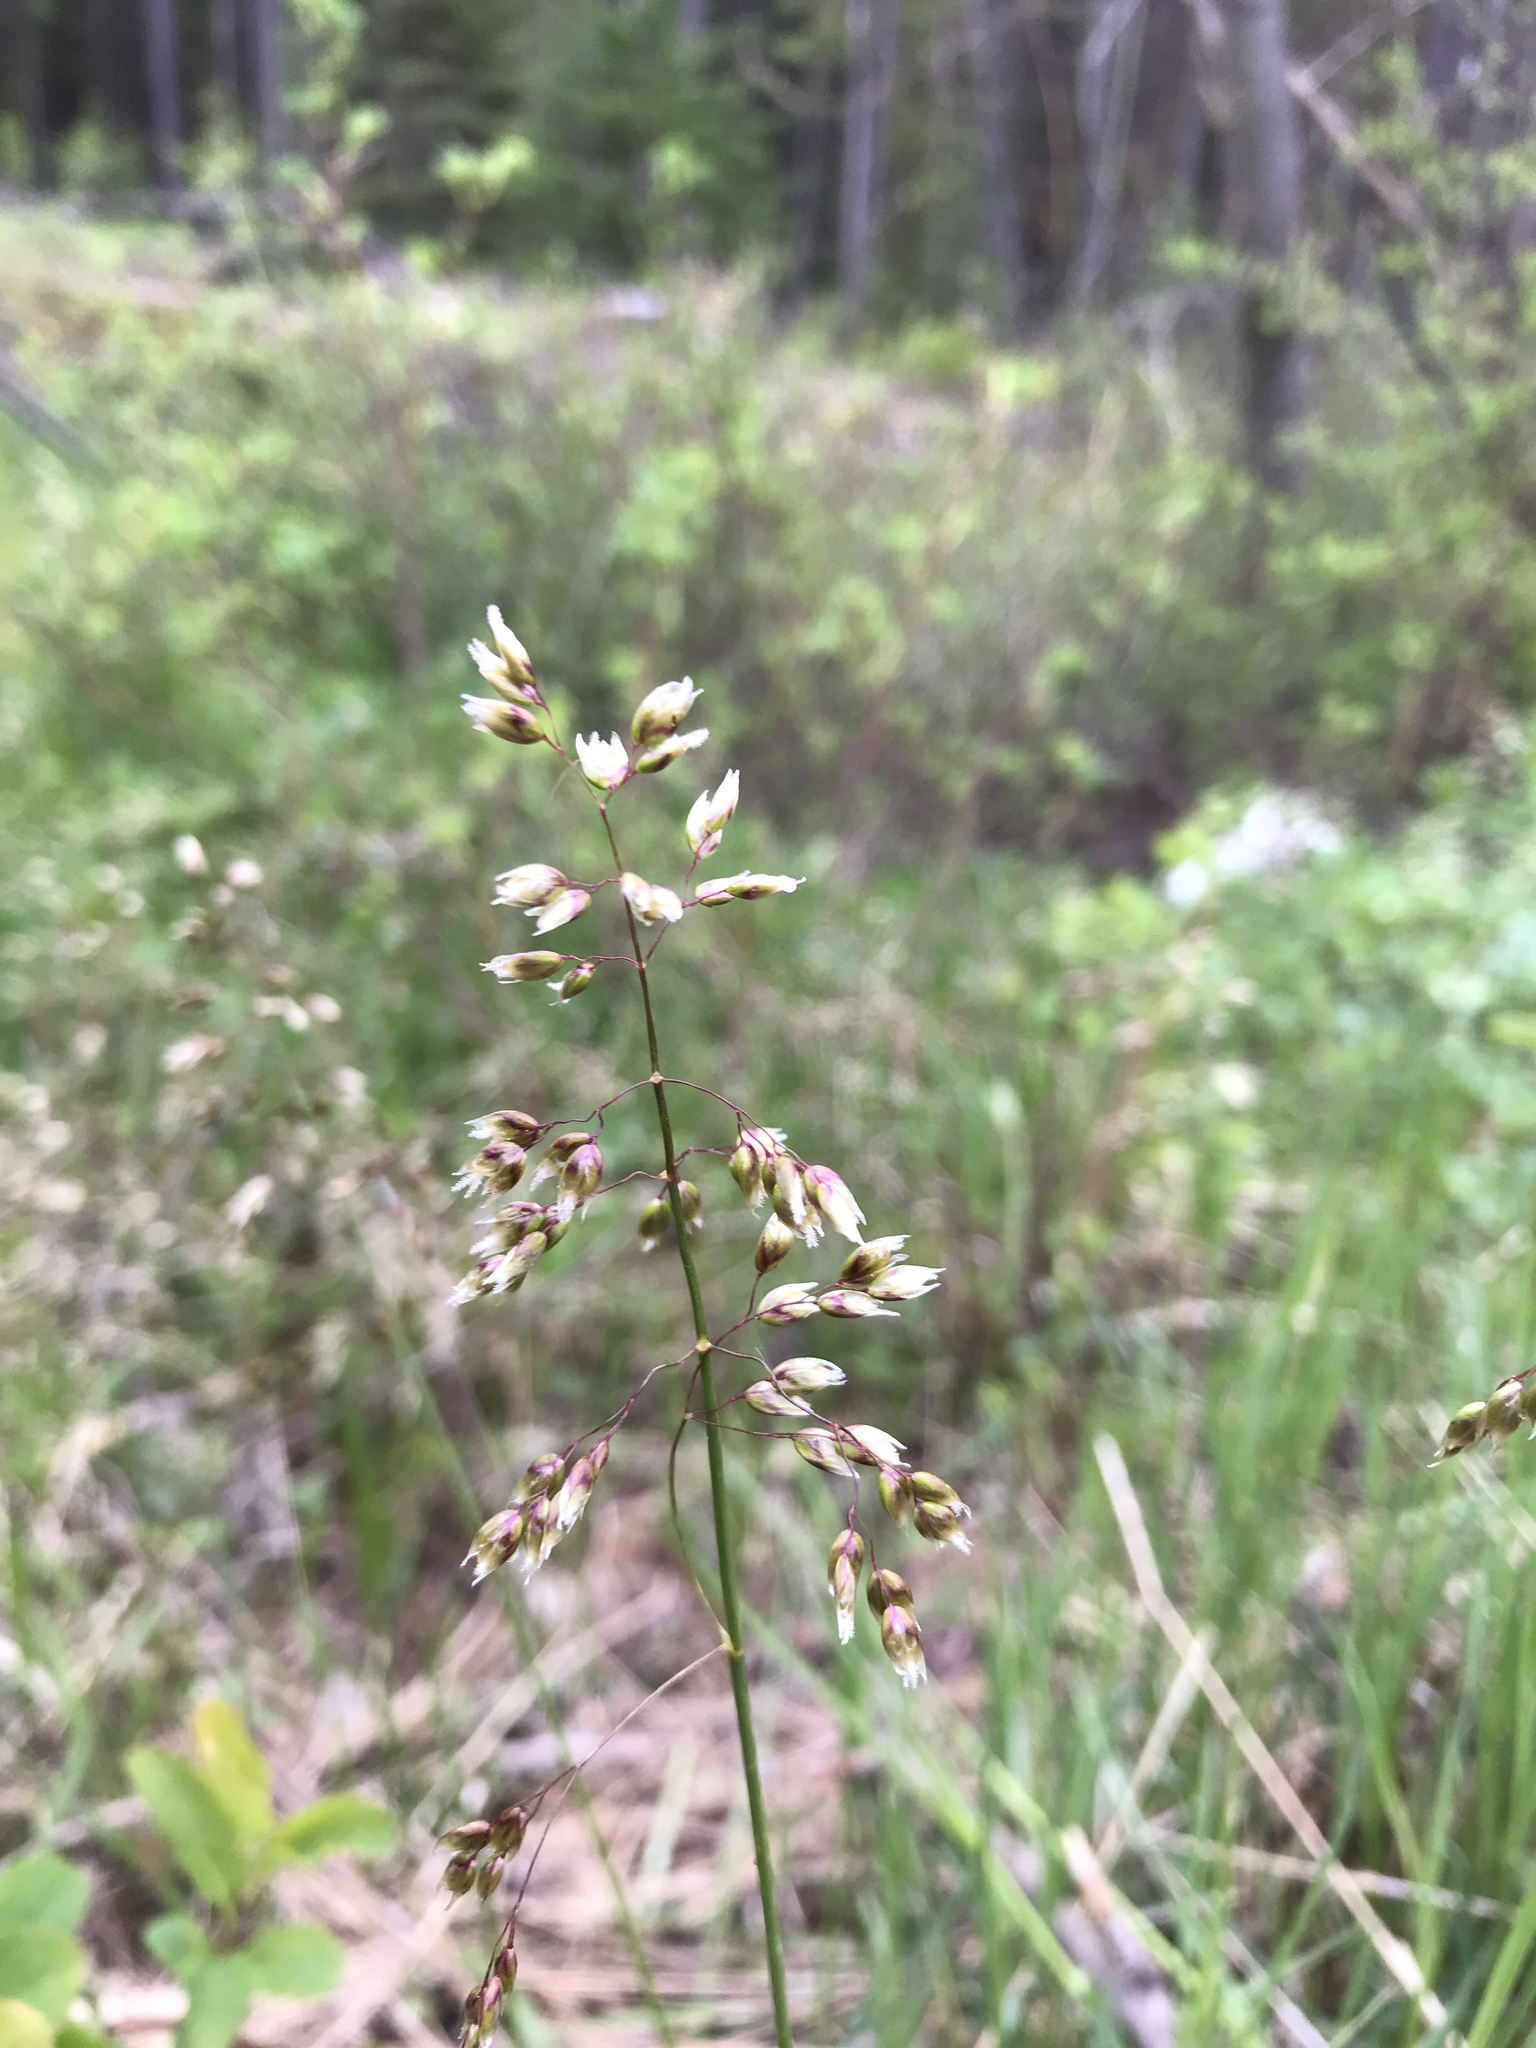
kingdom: Plantae
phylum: Tracheophyta
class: Liliopsida
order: Poales
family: Poaceae
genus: Anthoxanthum
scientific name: Anthoxanthum nitens
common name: Holy grass
